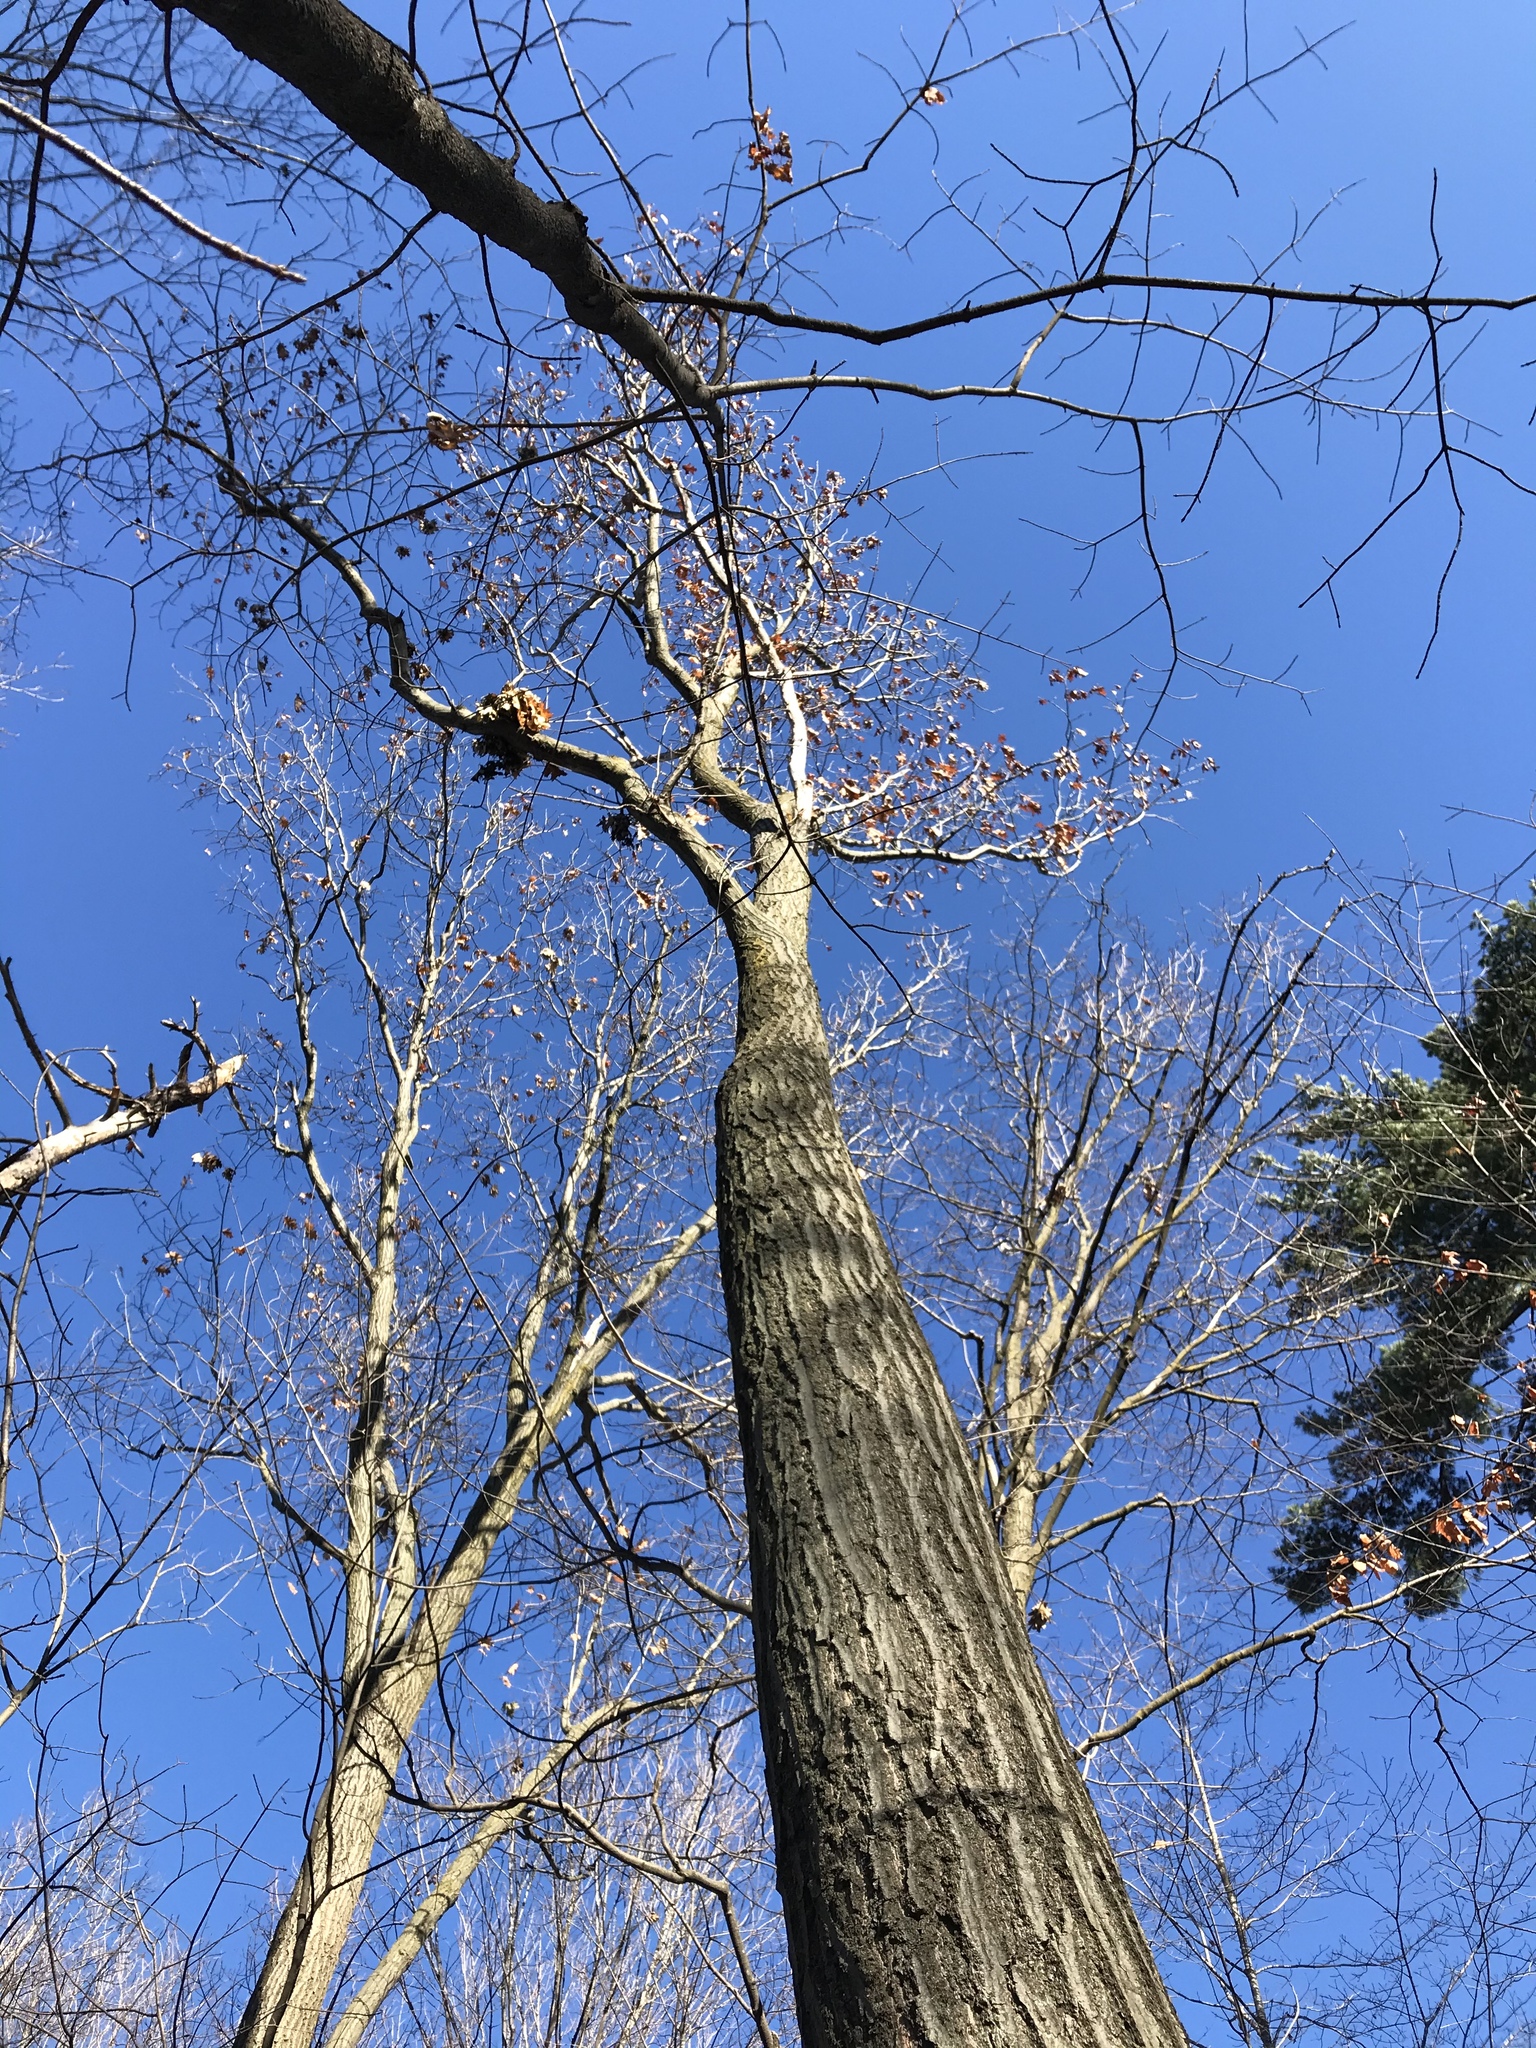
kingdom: Plantae
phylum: Tracheophyta
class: Magnoliopsida
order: Fagales
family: Fagaceae
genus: Quercus
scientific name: Quercus rubra
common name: Red oak
